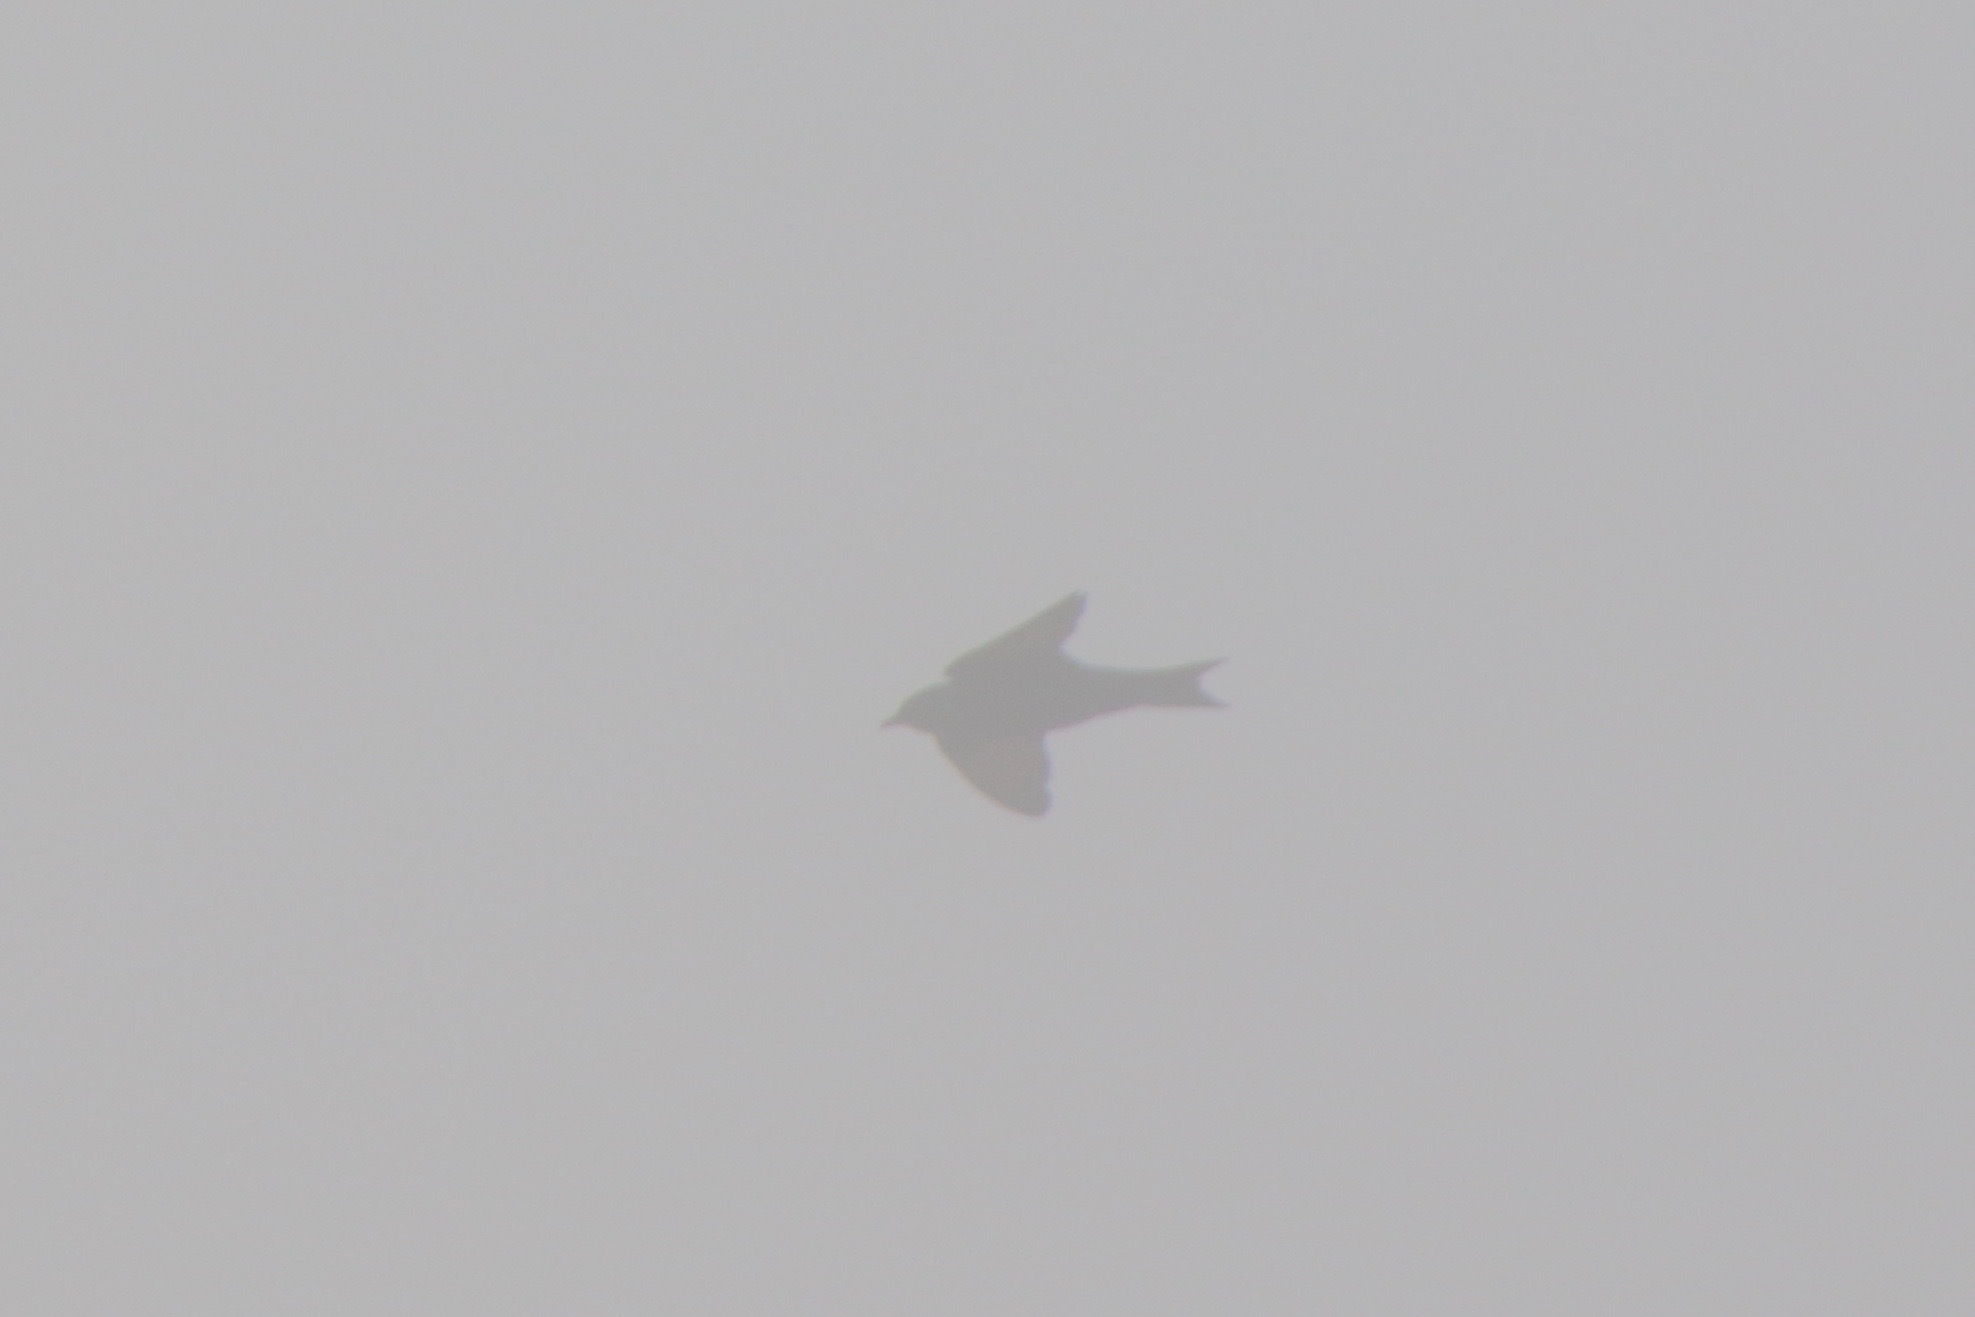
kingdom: Animalia
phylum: Chordata
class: Aves
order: Passeriformes
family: Hirundinidae
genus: Progne
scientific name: Progne subis
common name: Purple martin
